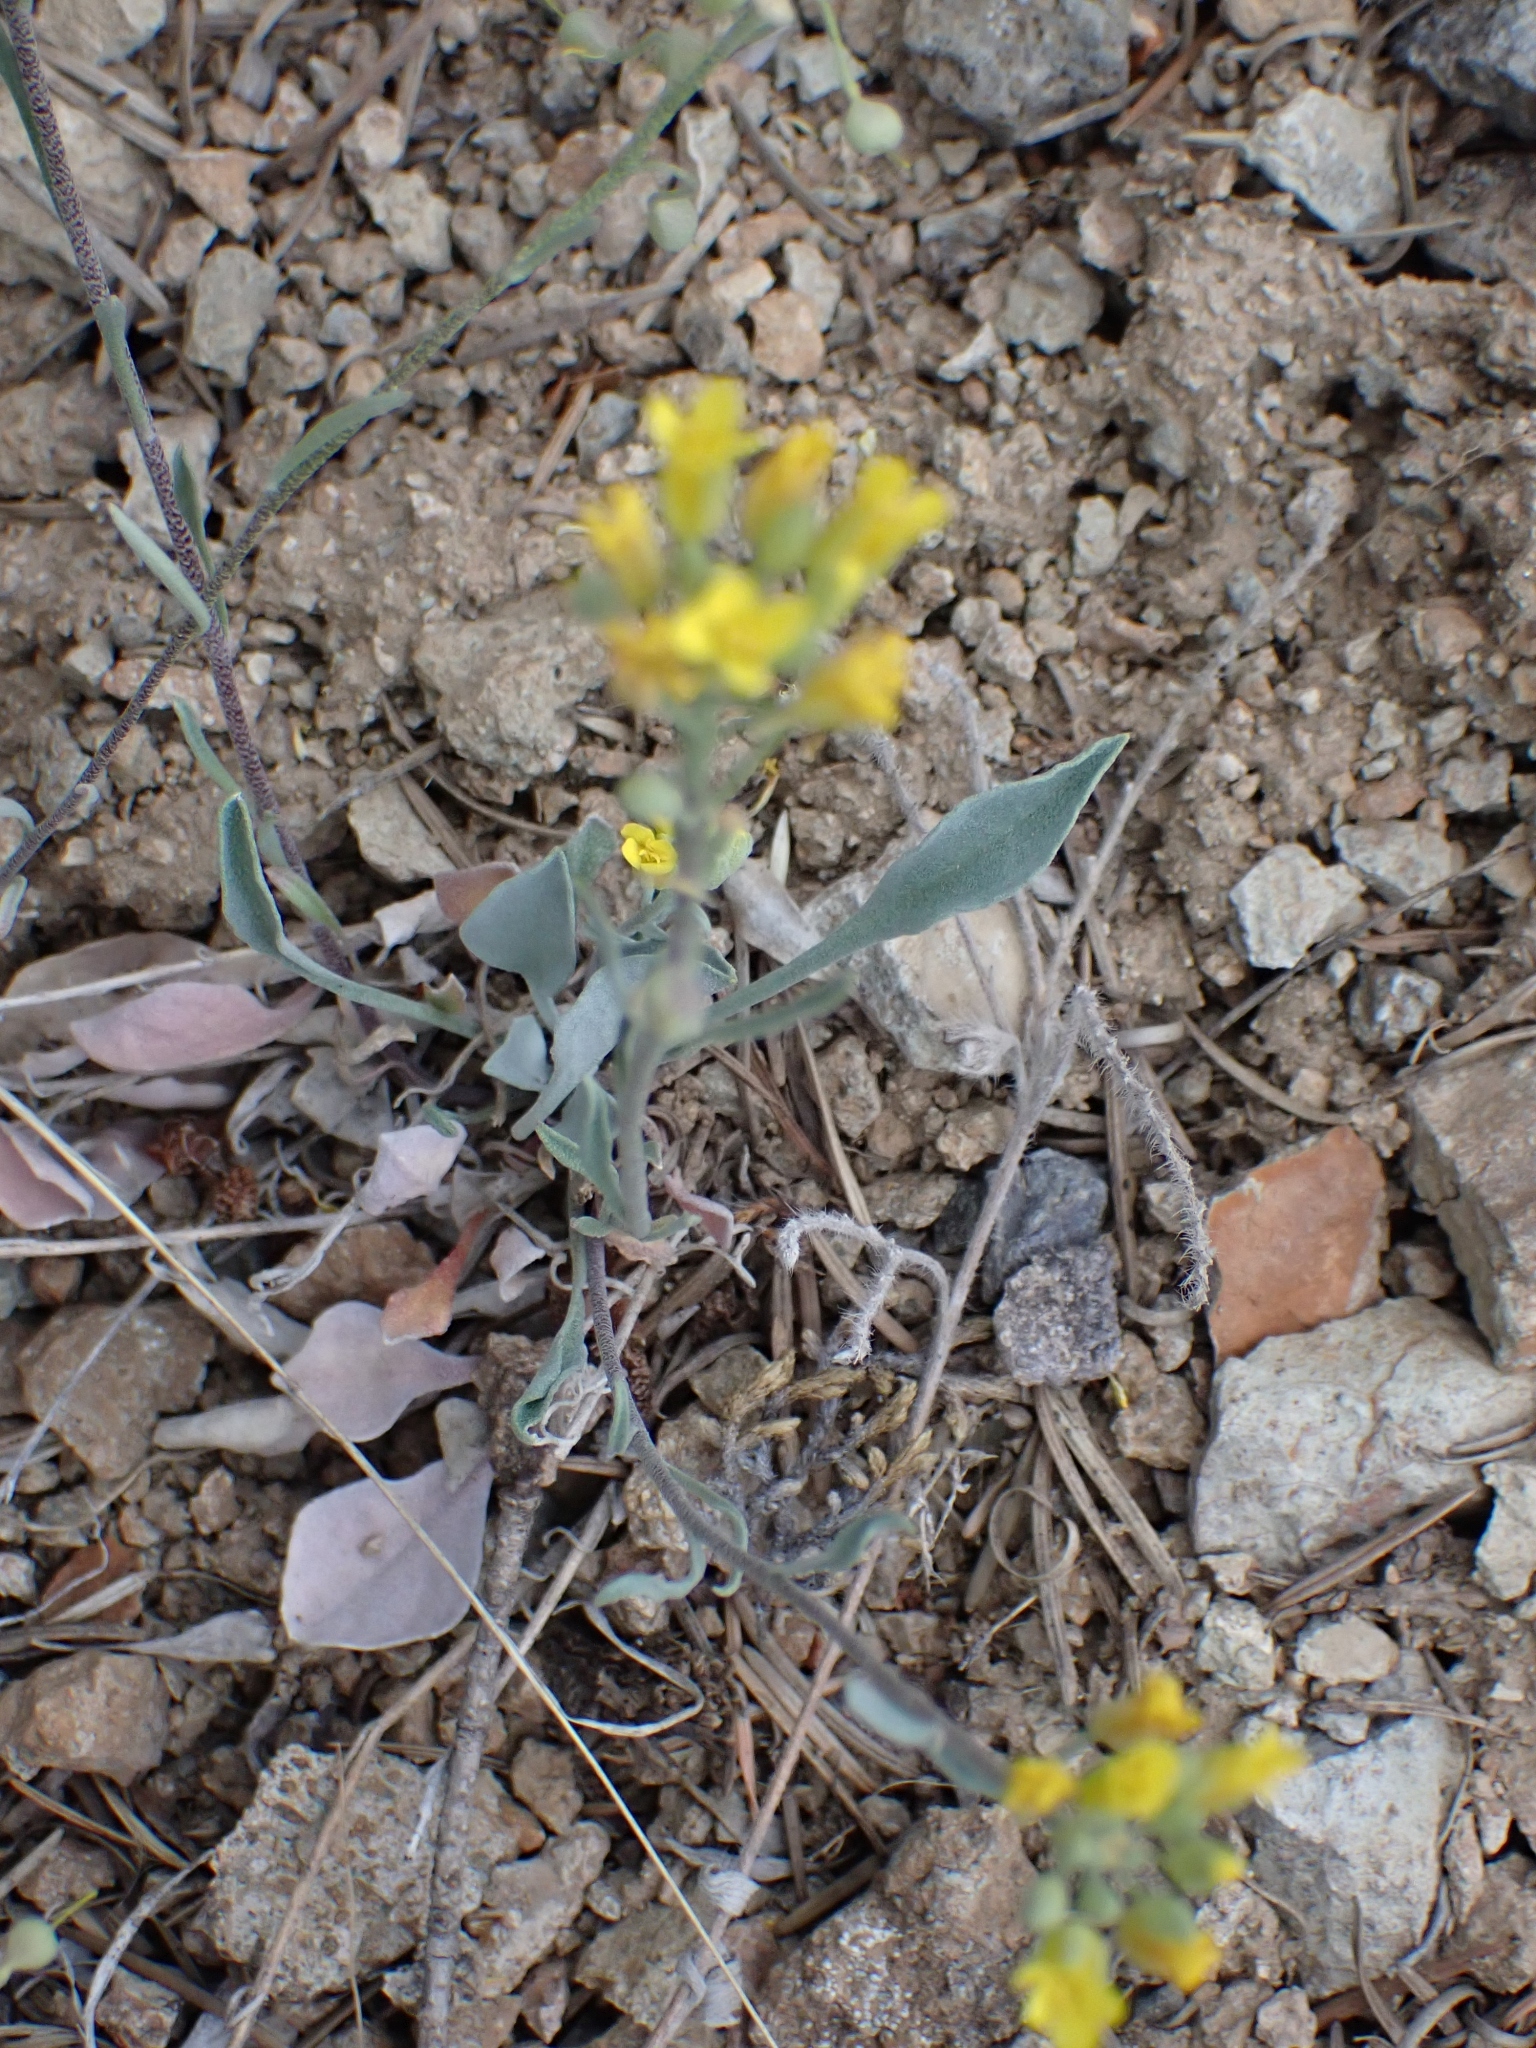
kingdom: Plantae
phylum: Tracheophyta
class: Magnoliopsida
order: Brassicales
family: Brassicaceae
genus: Physaria
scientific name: Physaria douglasii
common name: Douglas's bladderpod
